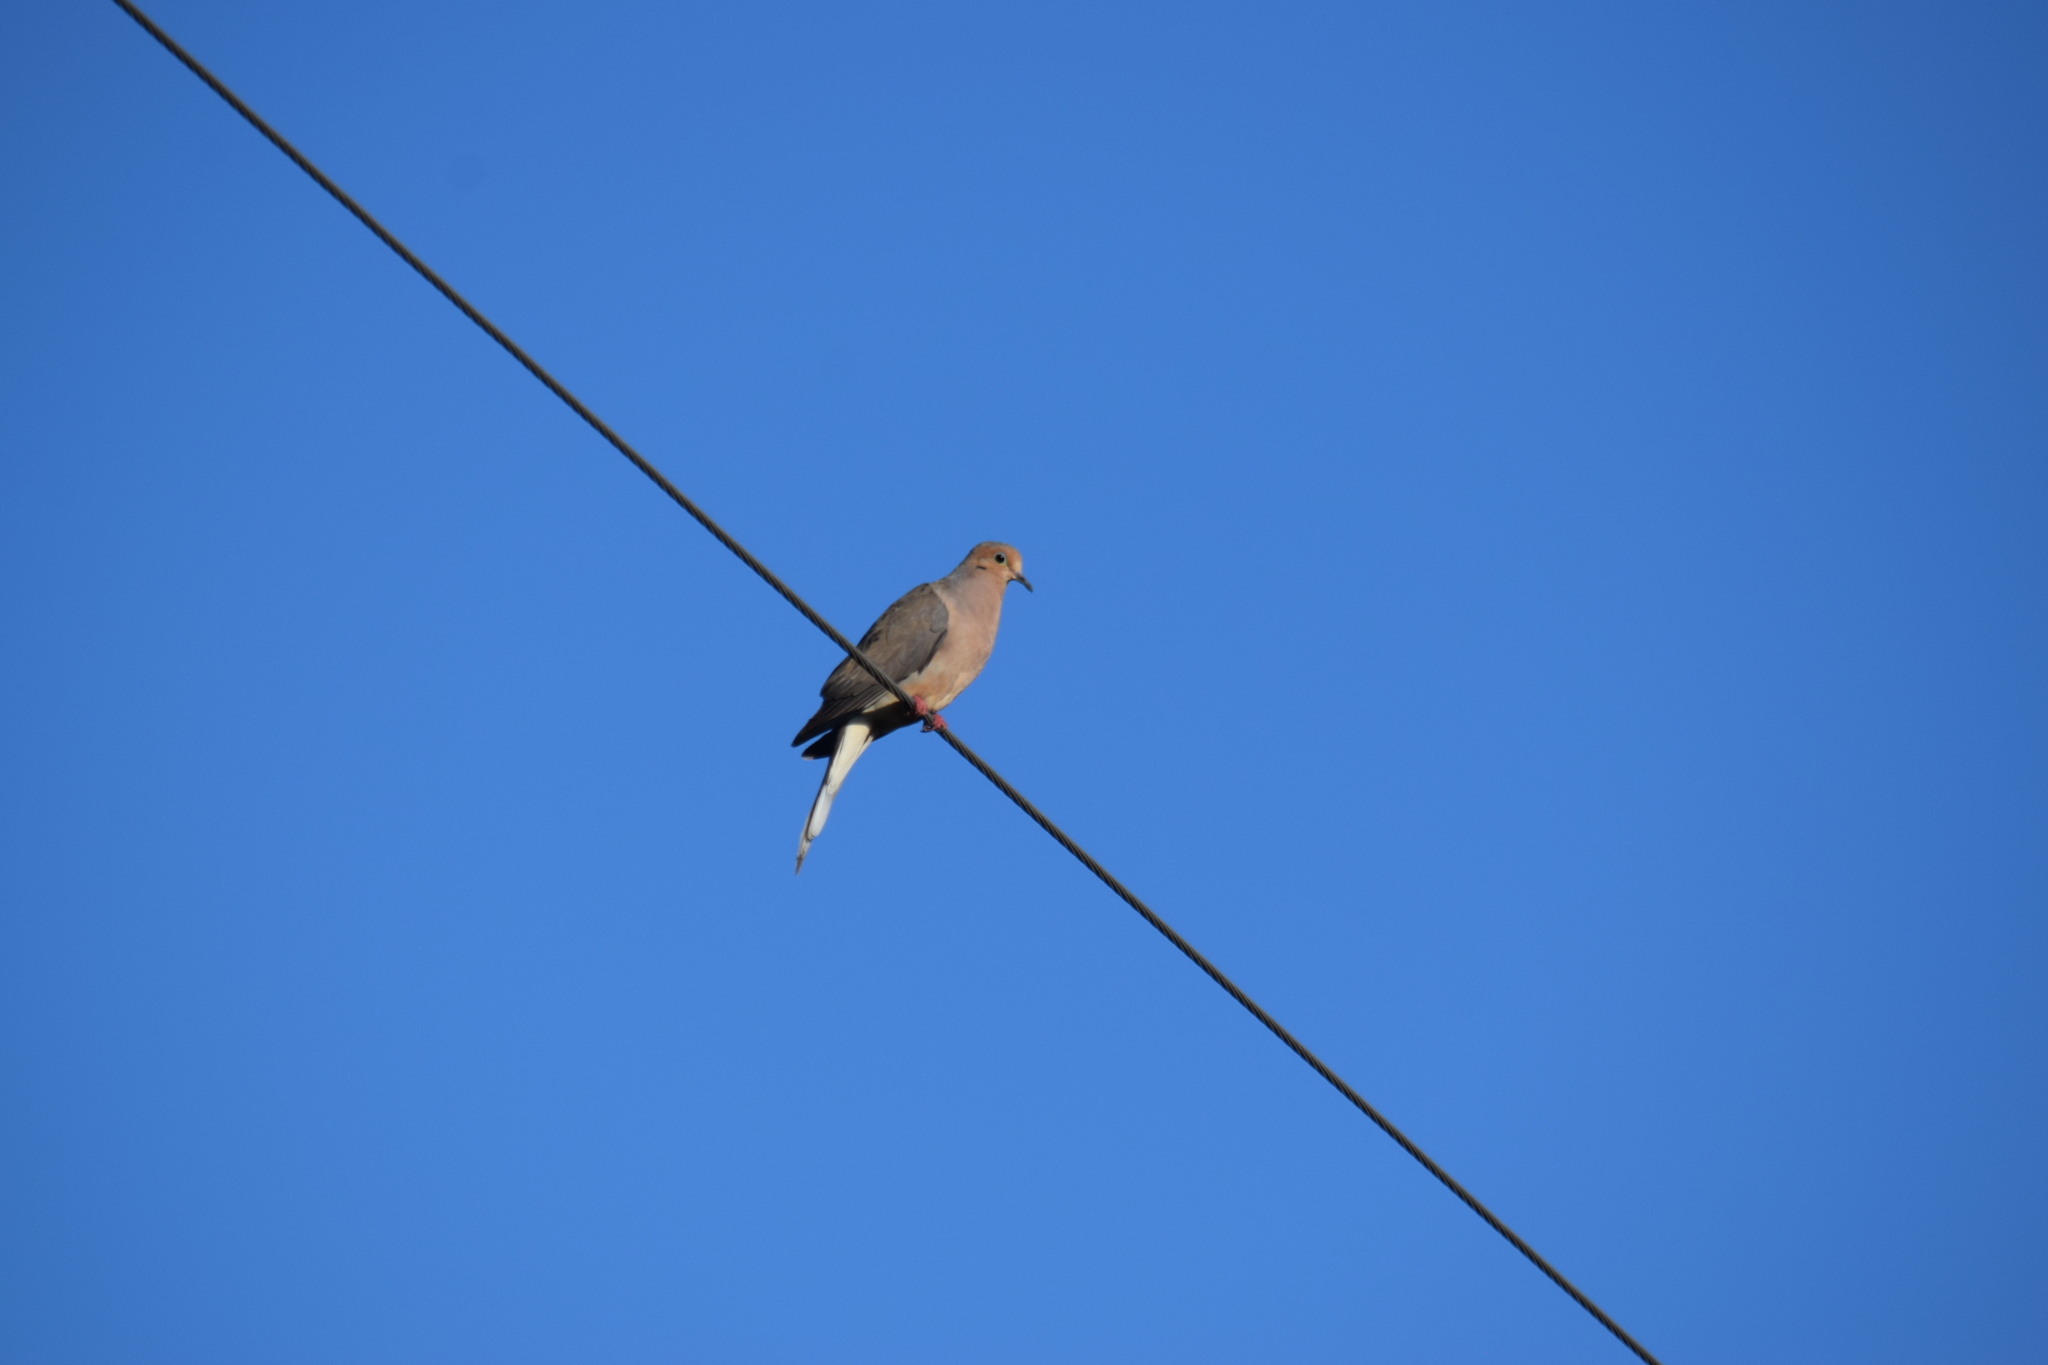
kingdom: Animalia
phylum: Chordata
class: Aves
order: Columbiformes
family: Columbidae
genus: Zenaida
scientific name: Zenaida macroura
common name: Mourning dove
